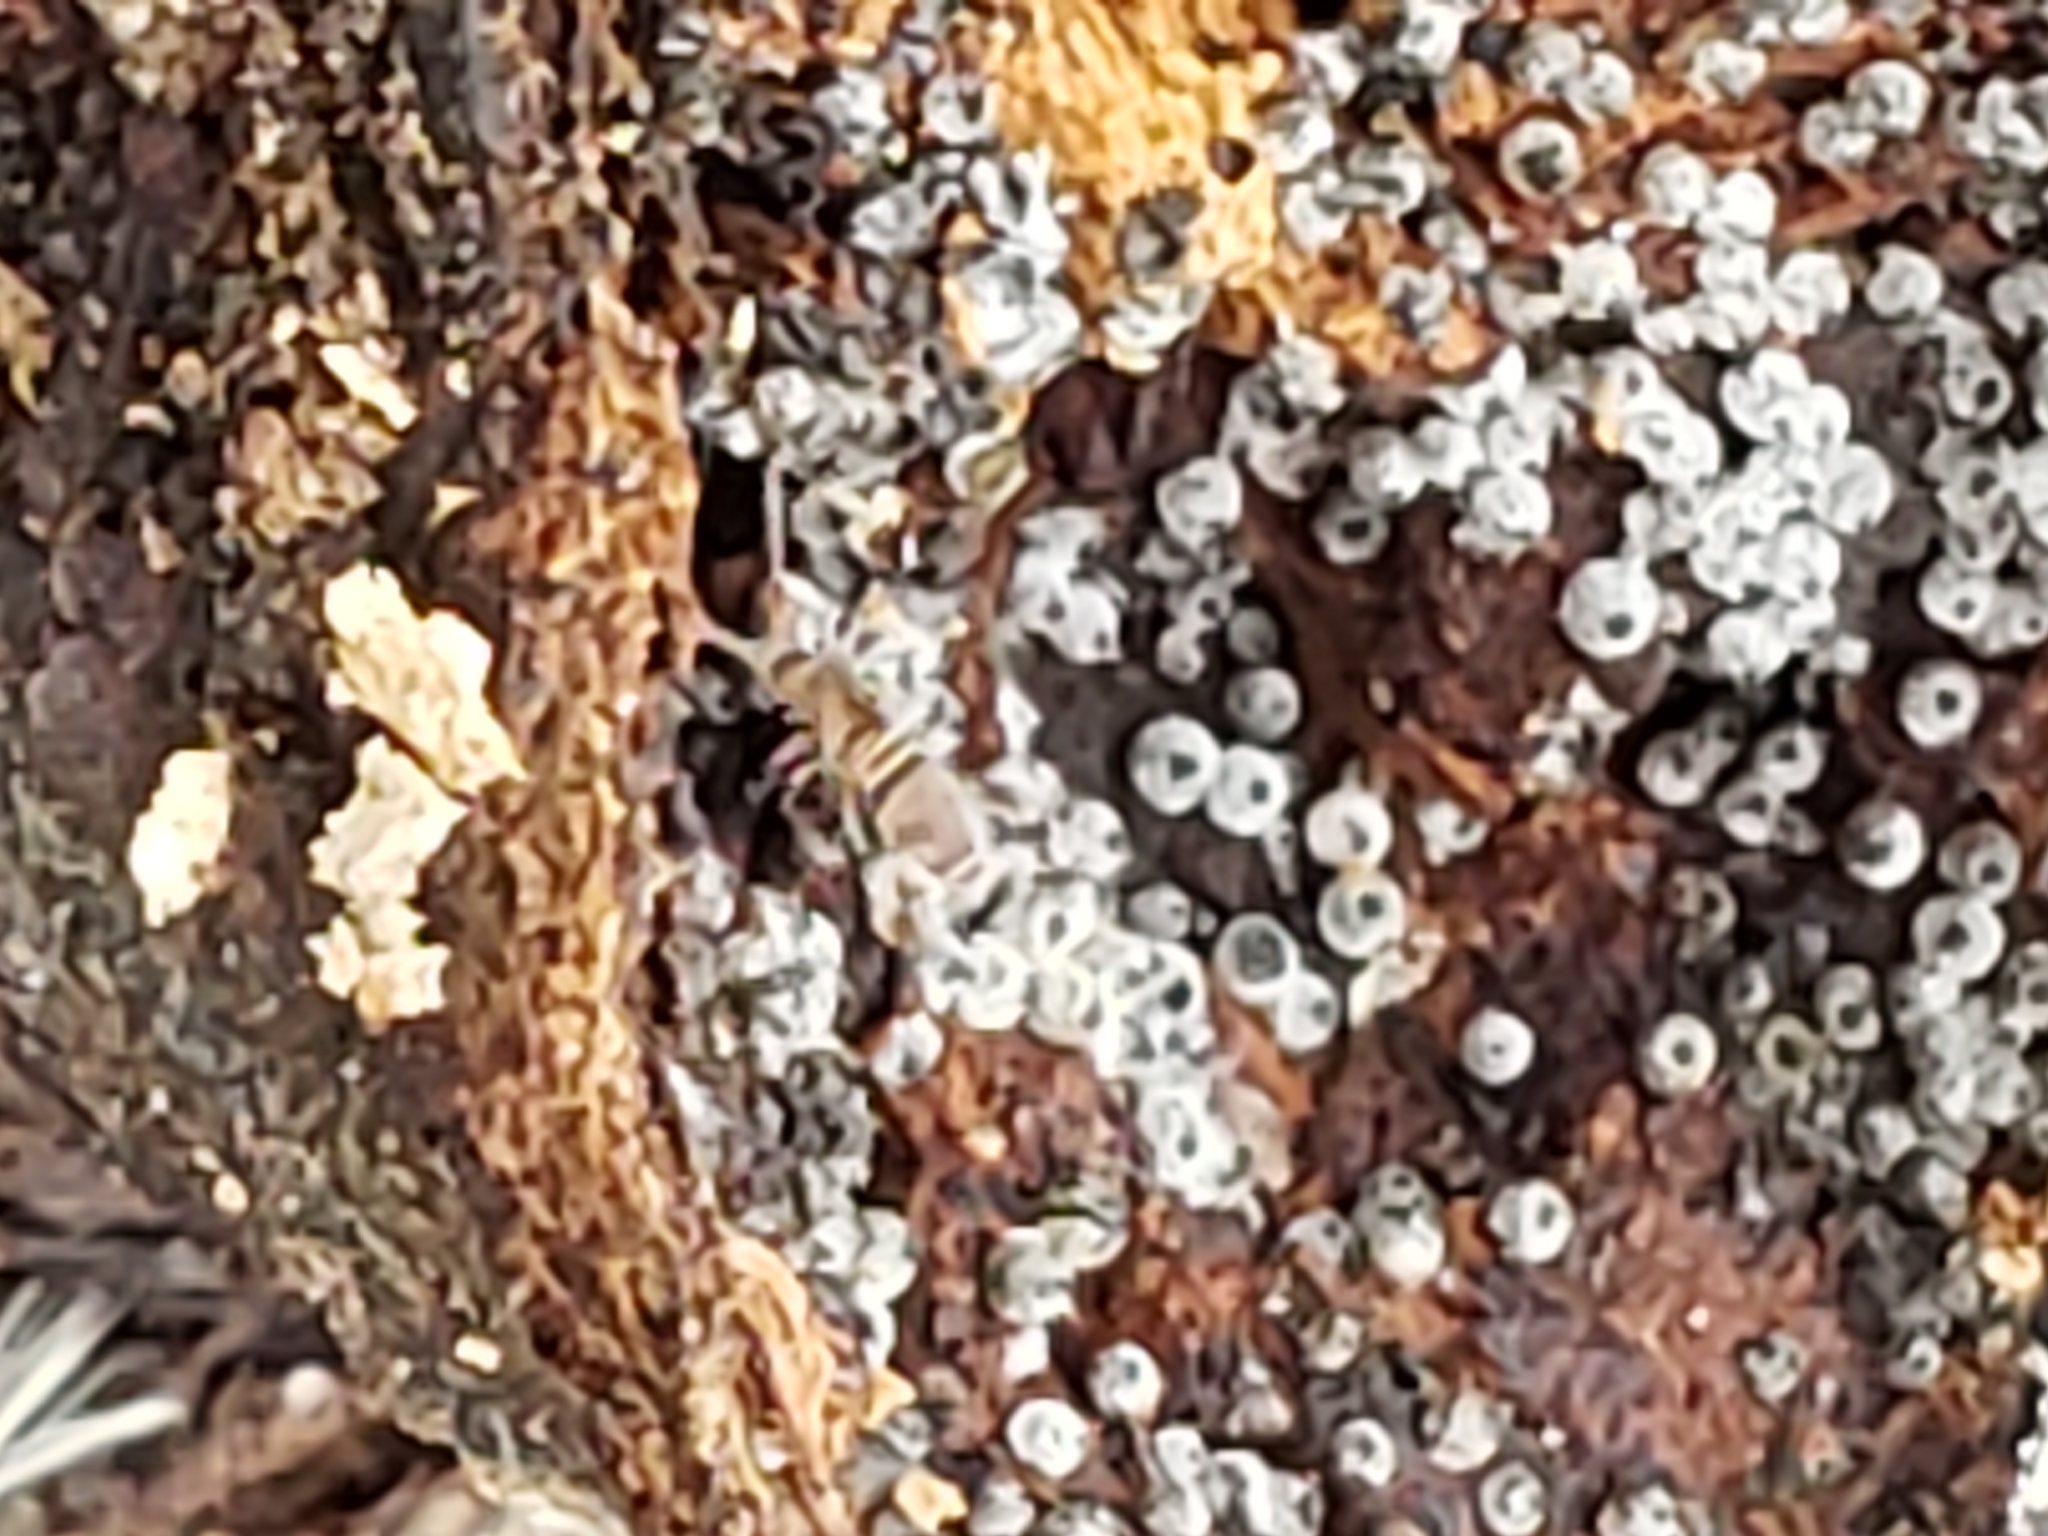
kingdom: Fungi
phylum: Ascomycota
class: Sordariomycetes
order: Sordariales
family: Lasiosphaeriaceae
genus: Lasiosphaeria
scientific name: Lasiosphaeria ovina
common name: Woolly woodwart
